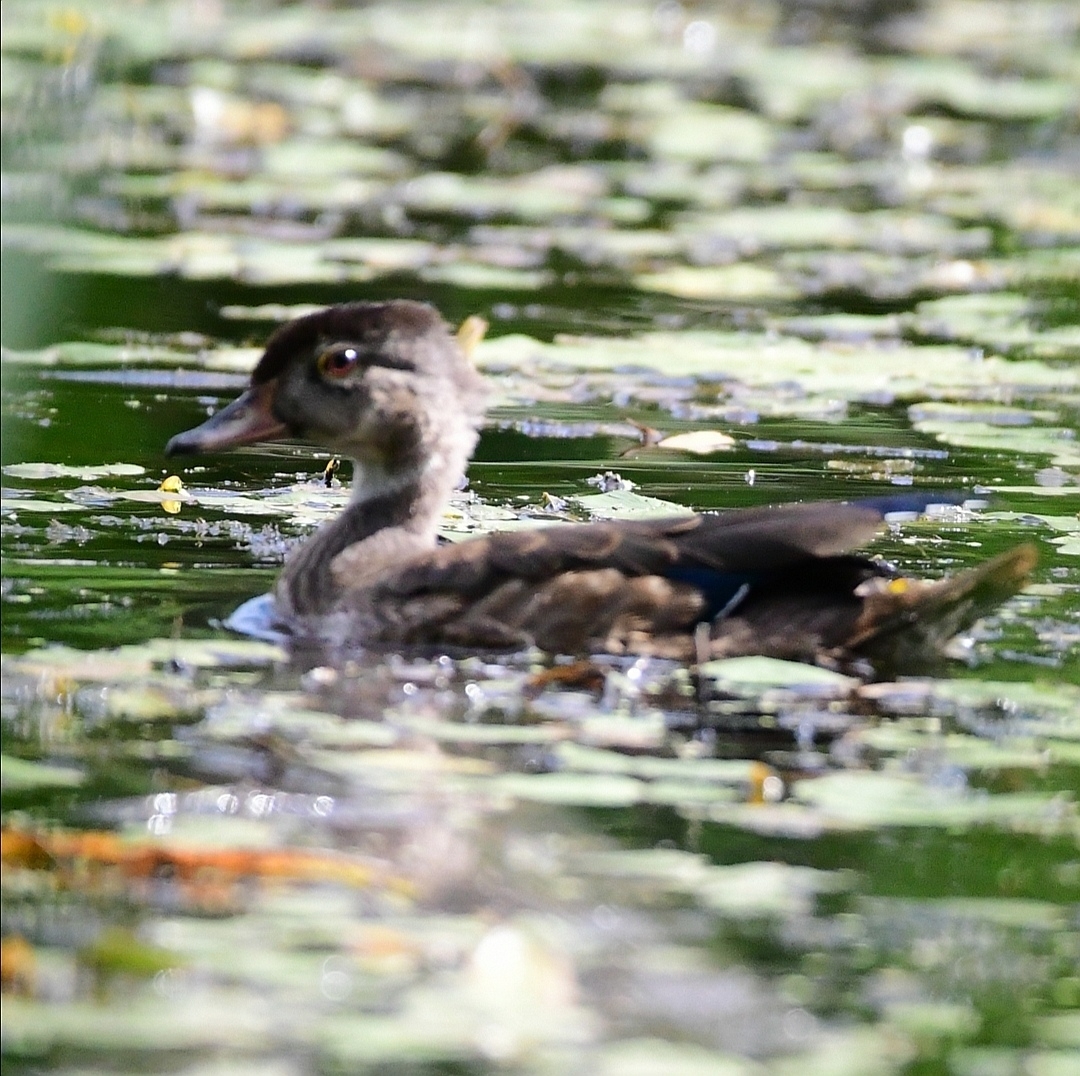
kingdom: Animalia
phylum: Chordata
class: Aves
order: Anseriformes
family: Anatidae
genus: Aix
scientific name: Aix sponsa
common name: Wood duck
